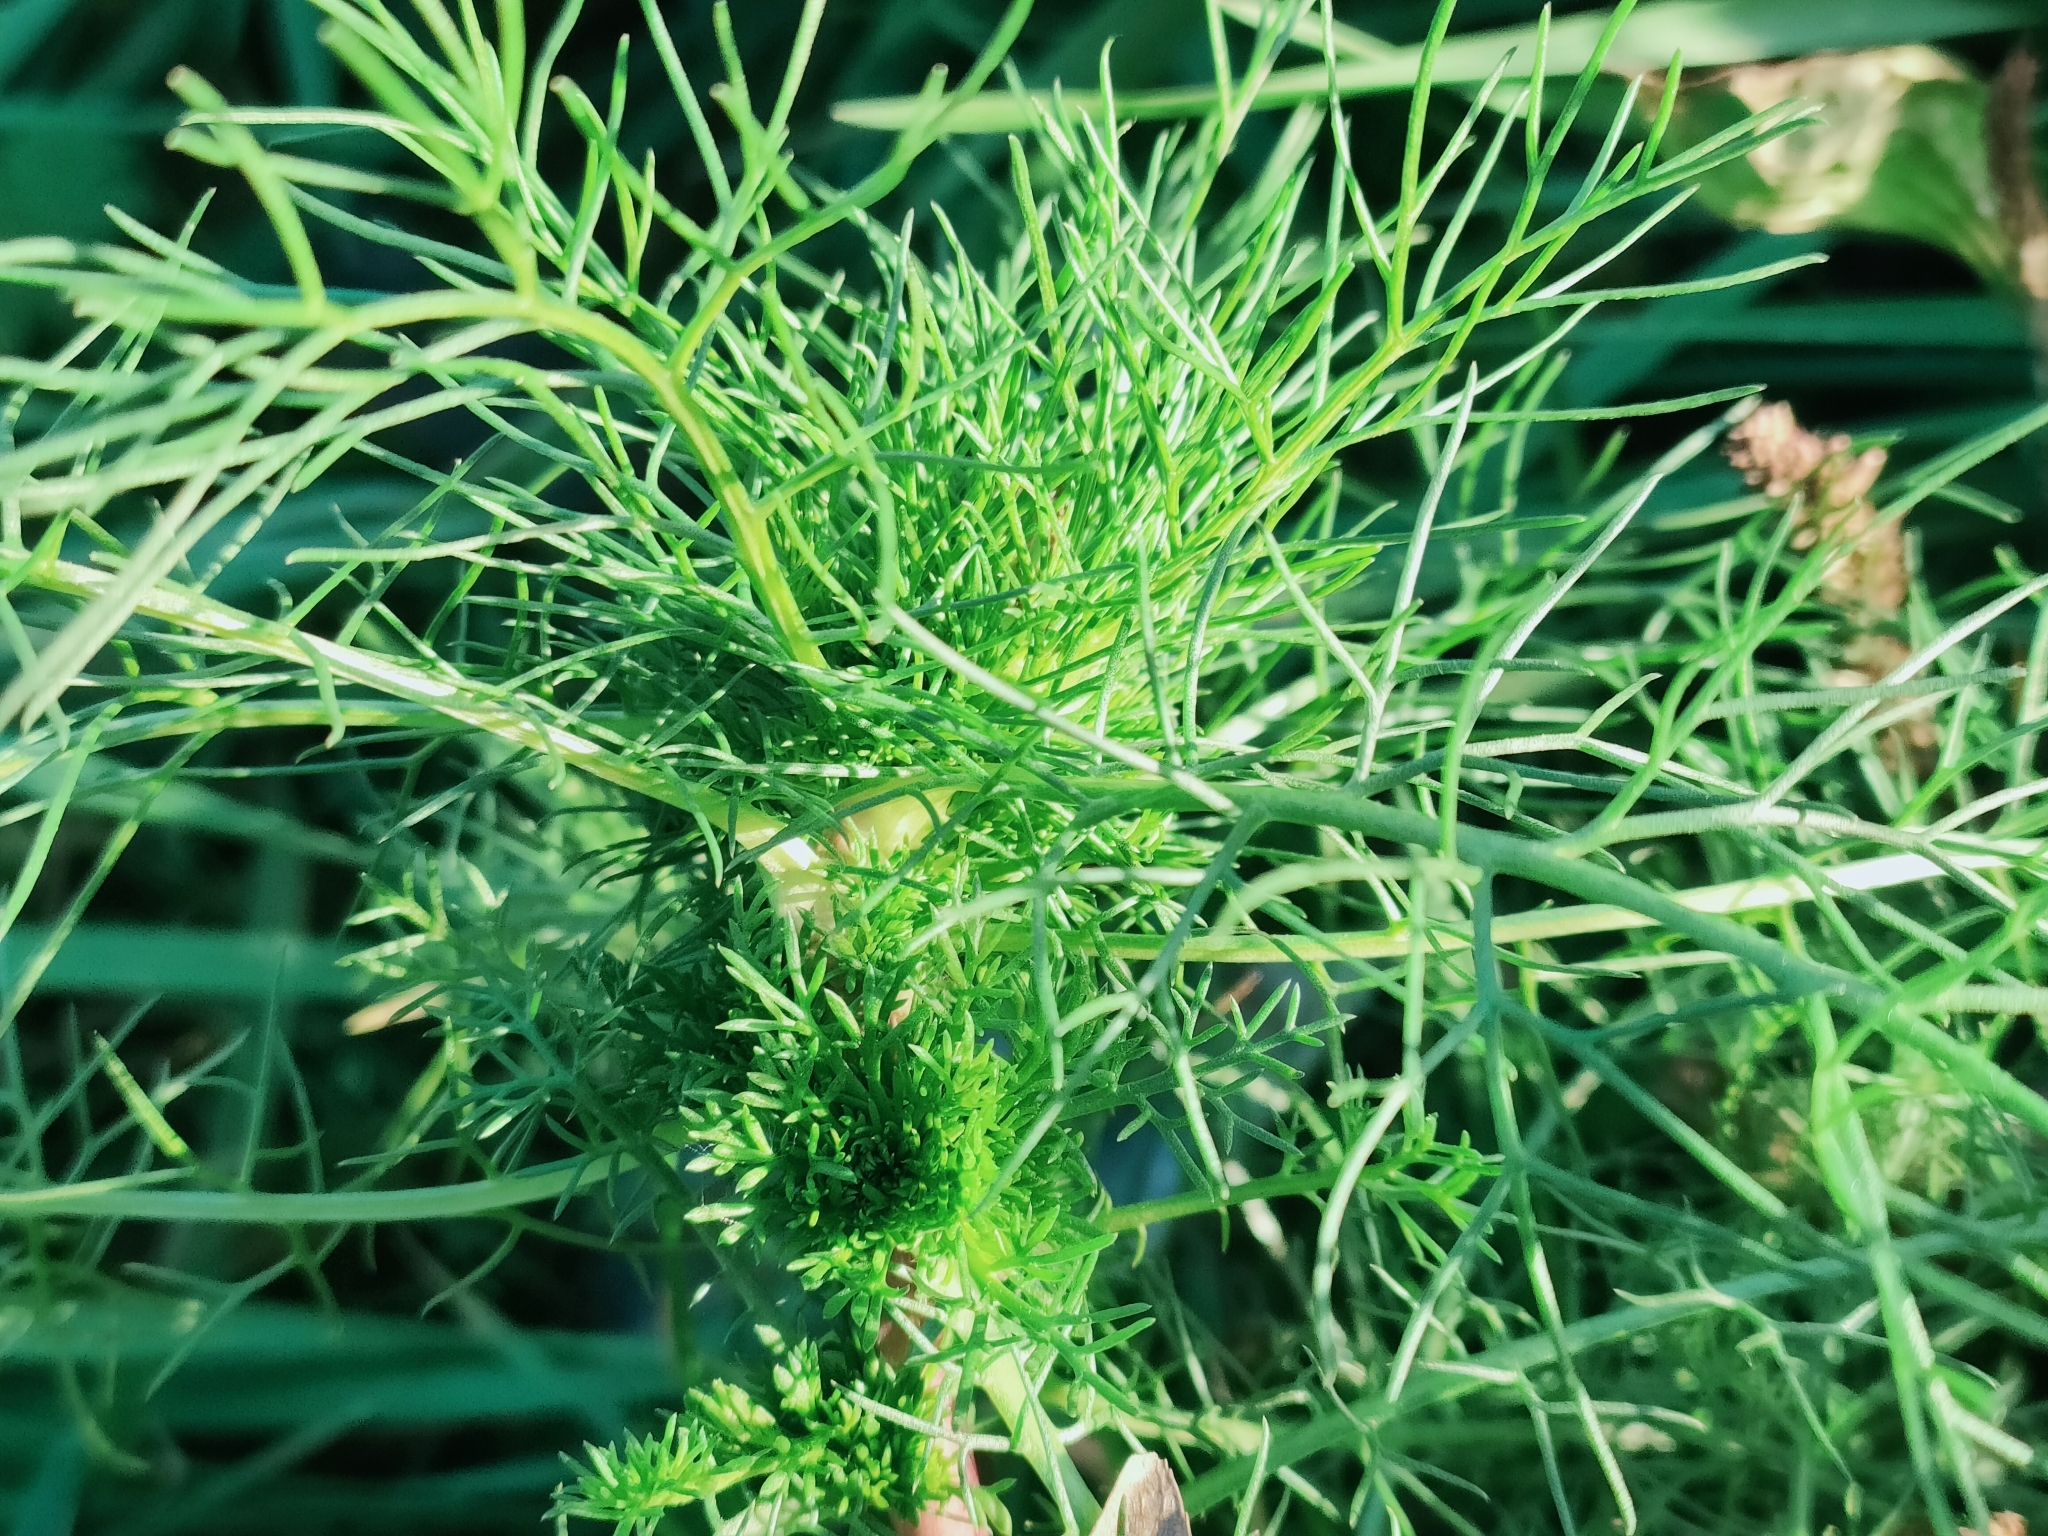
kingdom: Plantae
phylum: Tracheophyta
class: Magnoliopsida
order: Asterales
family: Asteraceae
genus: Tripleurospermum
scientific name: Tripleurospermum inodorum
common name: Scentless mayweed
